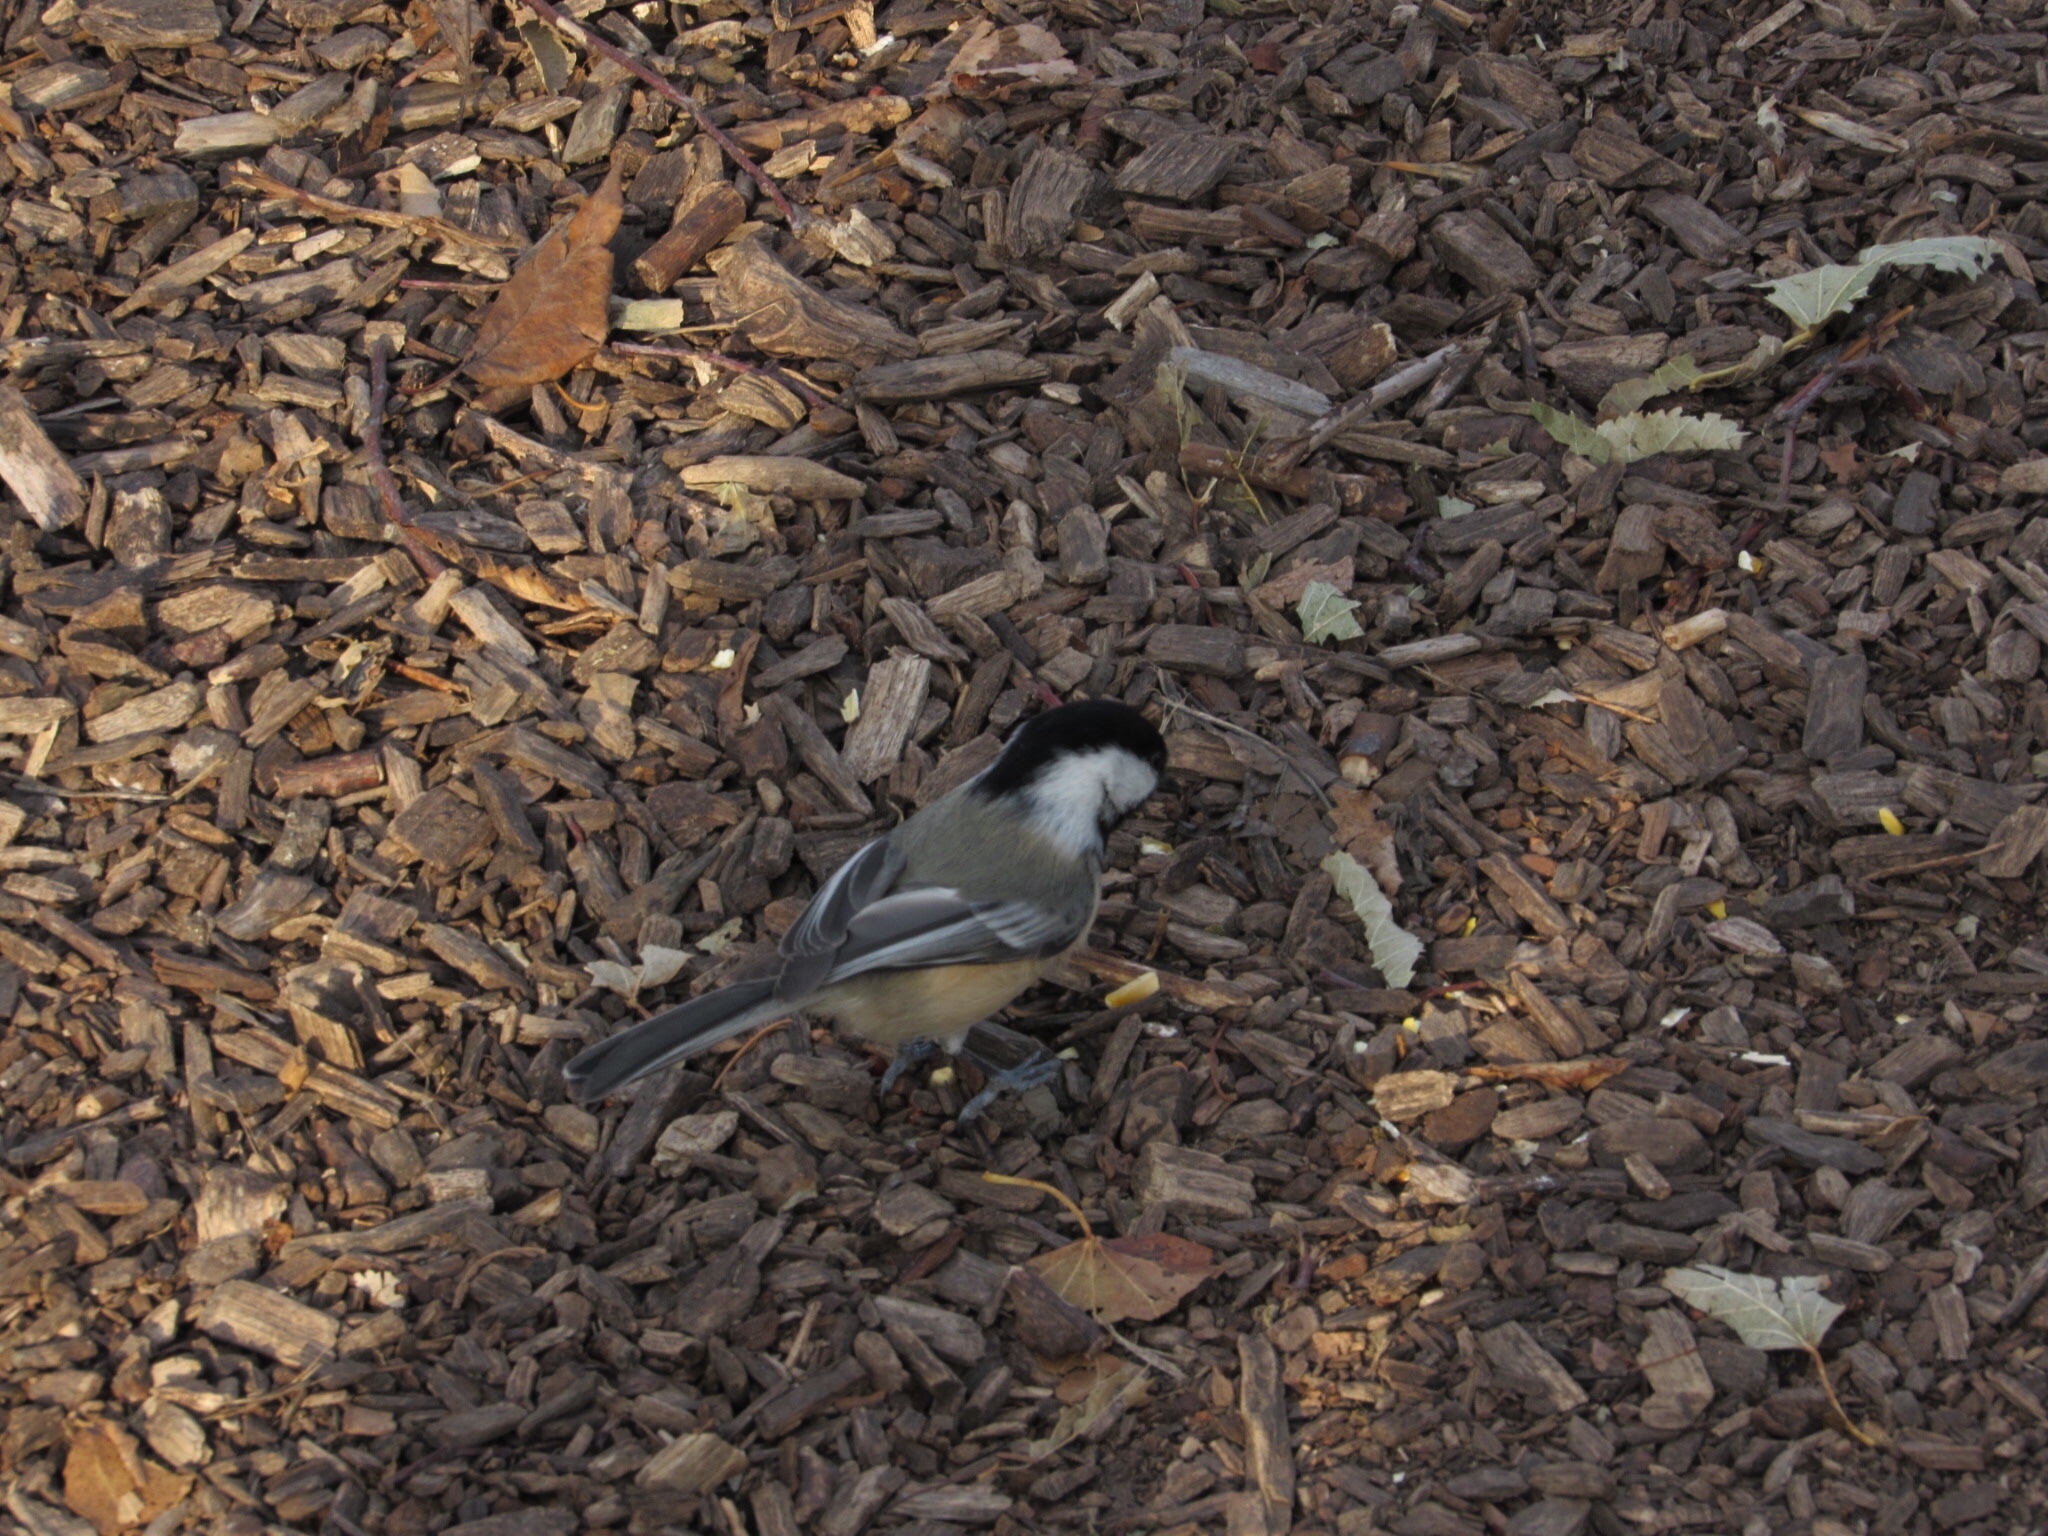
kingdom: Animalia
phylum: Chordata
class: Aves
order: Passeriformes
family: Paridae
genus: Poecile
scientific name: Poecile atricapillus
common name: Black-capped chickadee
